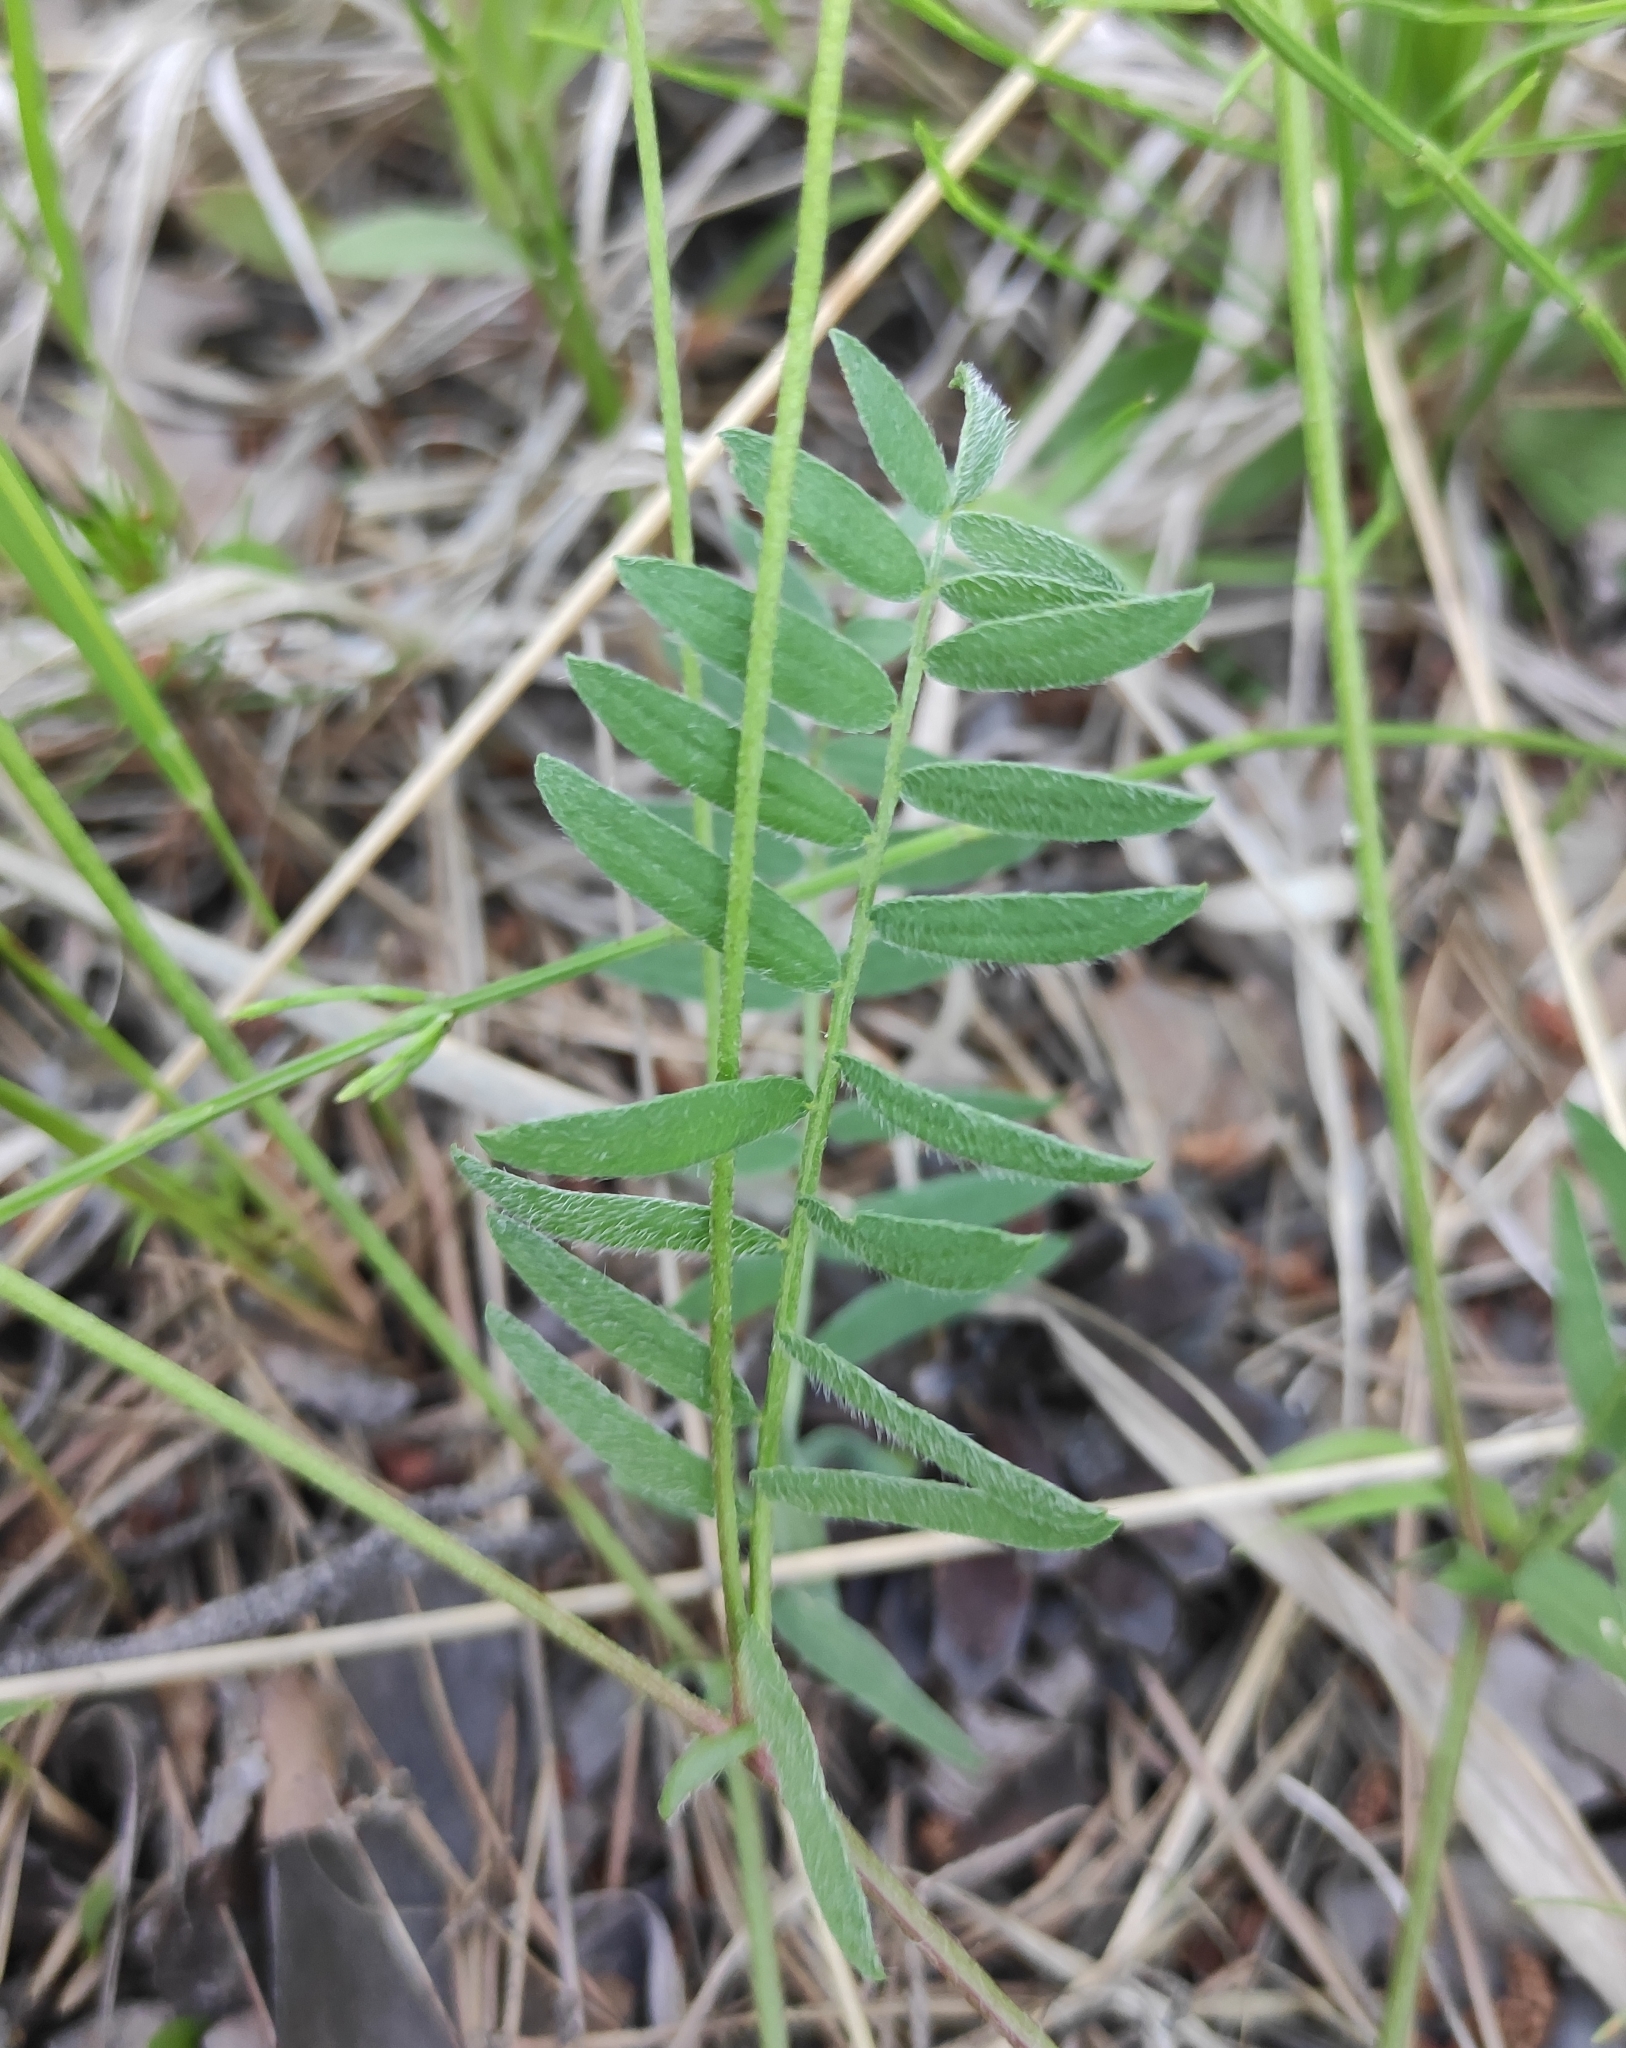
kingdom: Plantae
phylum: Tracheophyta
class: Magnoliopsida
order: Fabales
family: Fabaceae
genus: Oxytropis
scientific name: Oxytropis glabra
